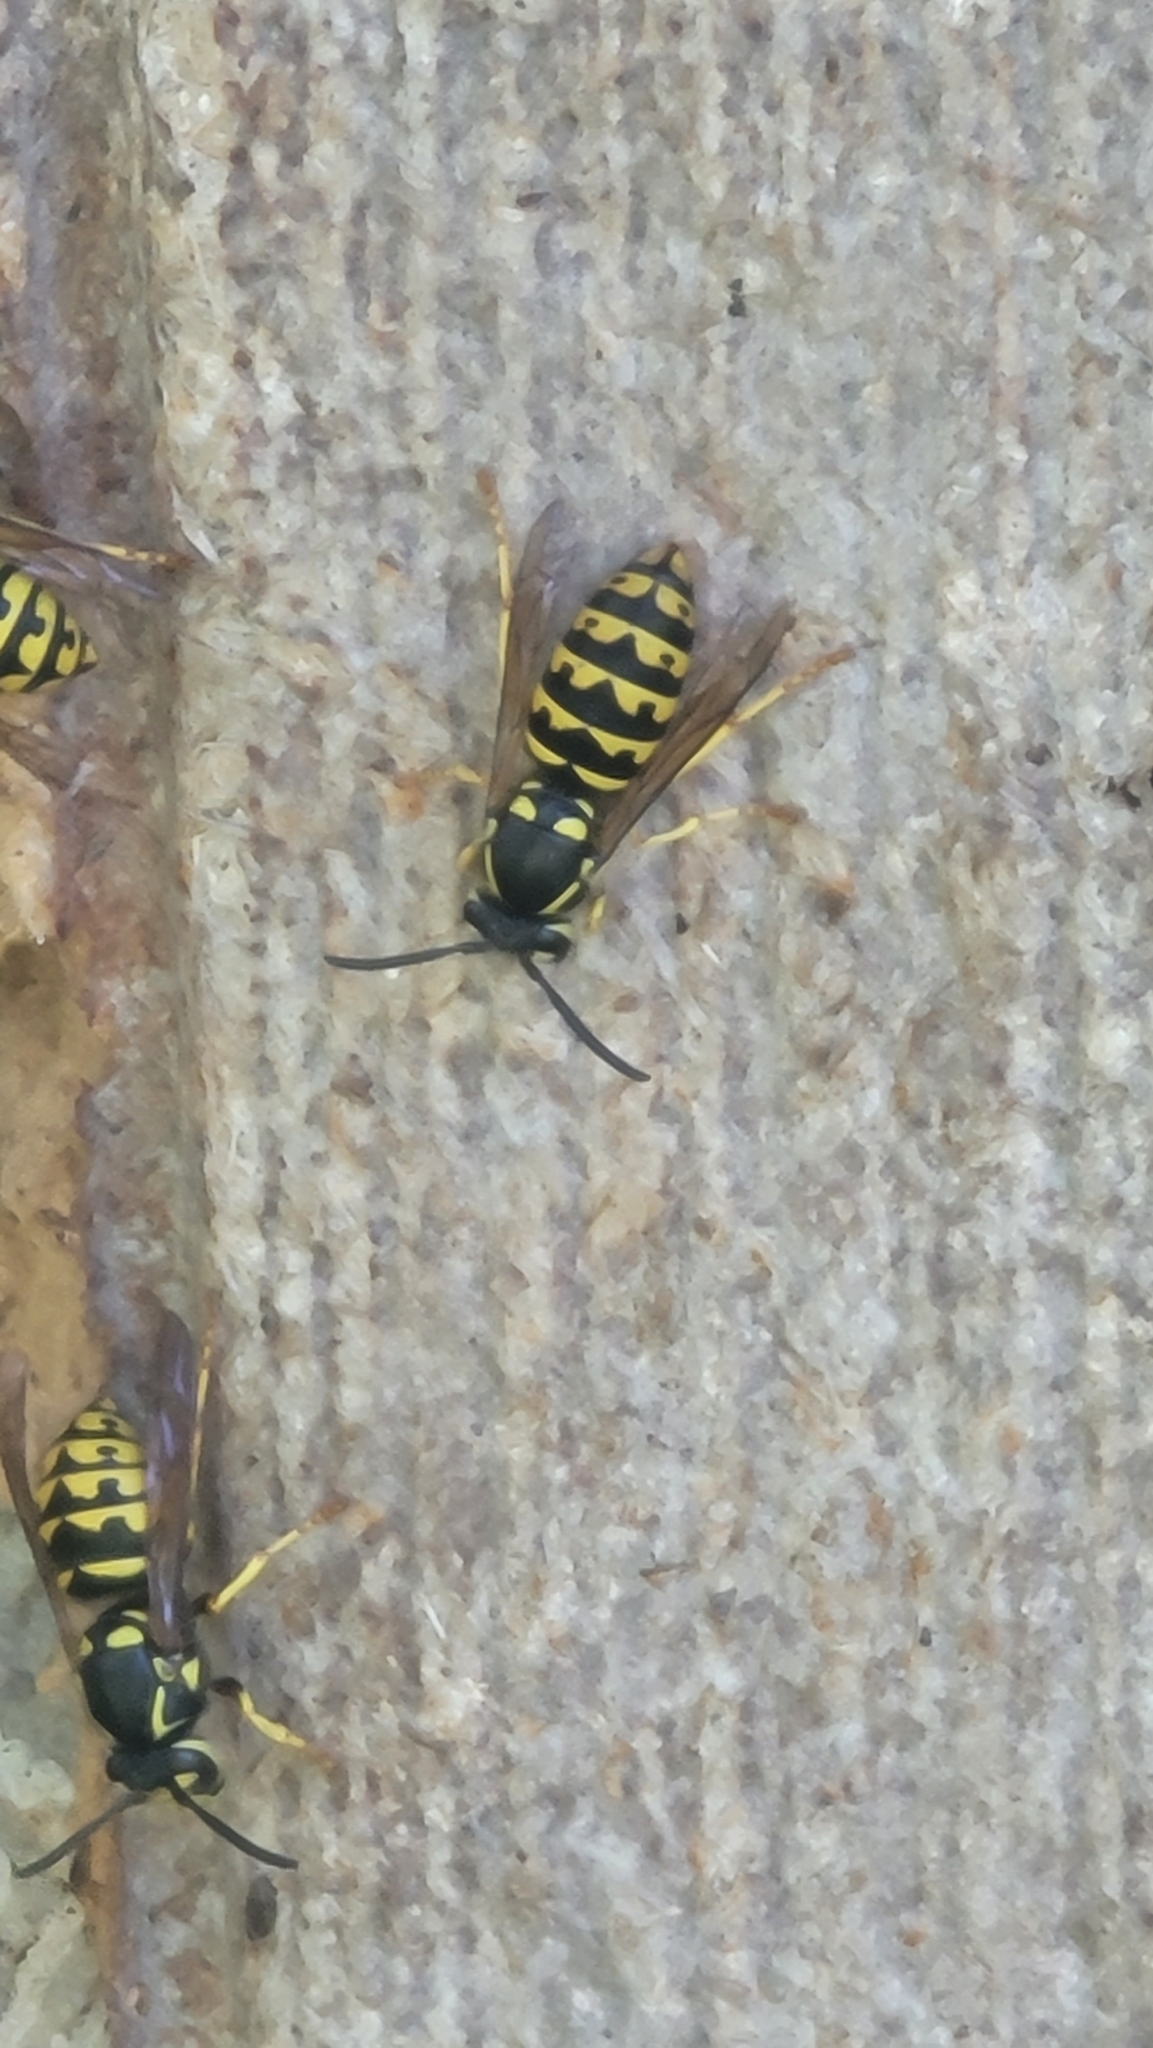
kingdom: Animalia
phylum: Arthropoda
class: Insecta
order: Hymenoptera
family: Vespidae
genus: Dolichovespula
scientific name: Dolichovespula arenaria
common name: Aerial yellowjacket
